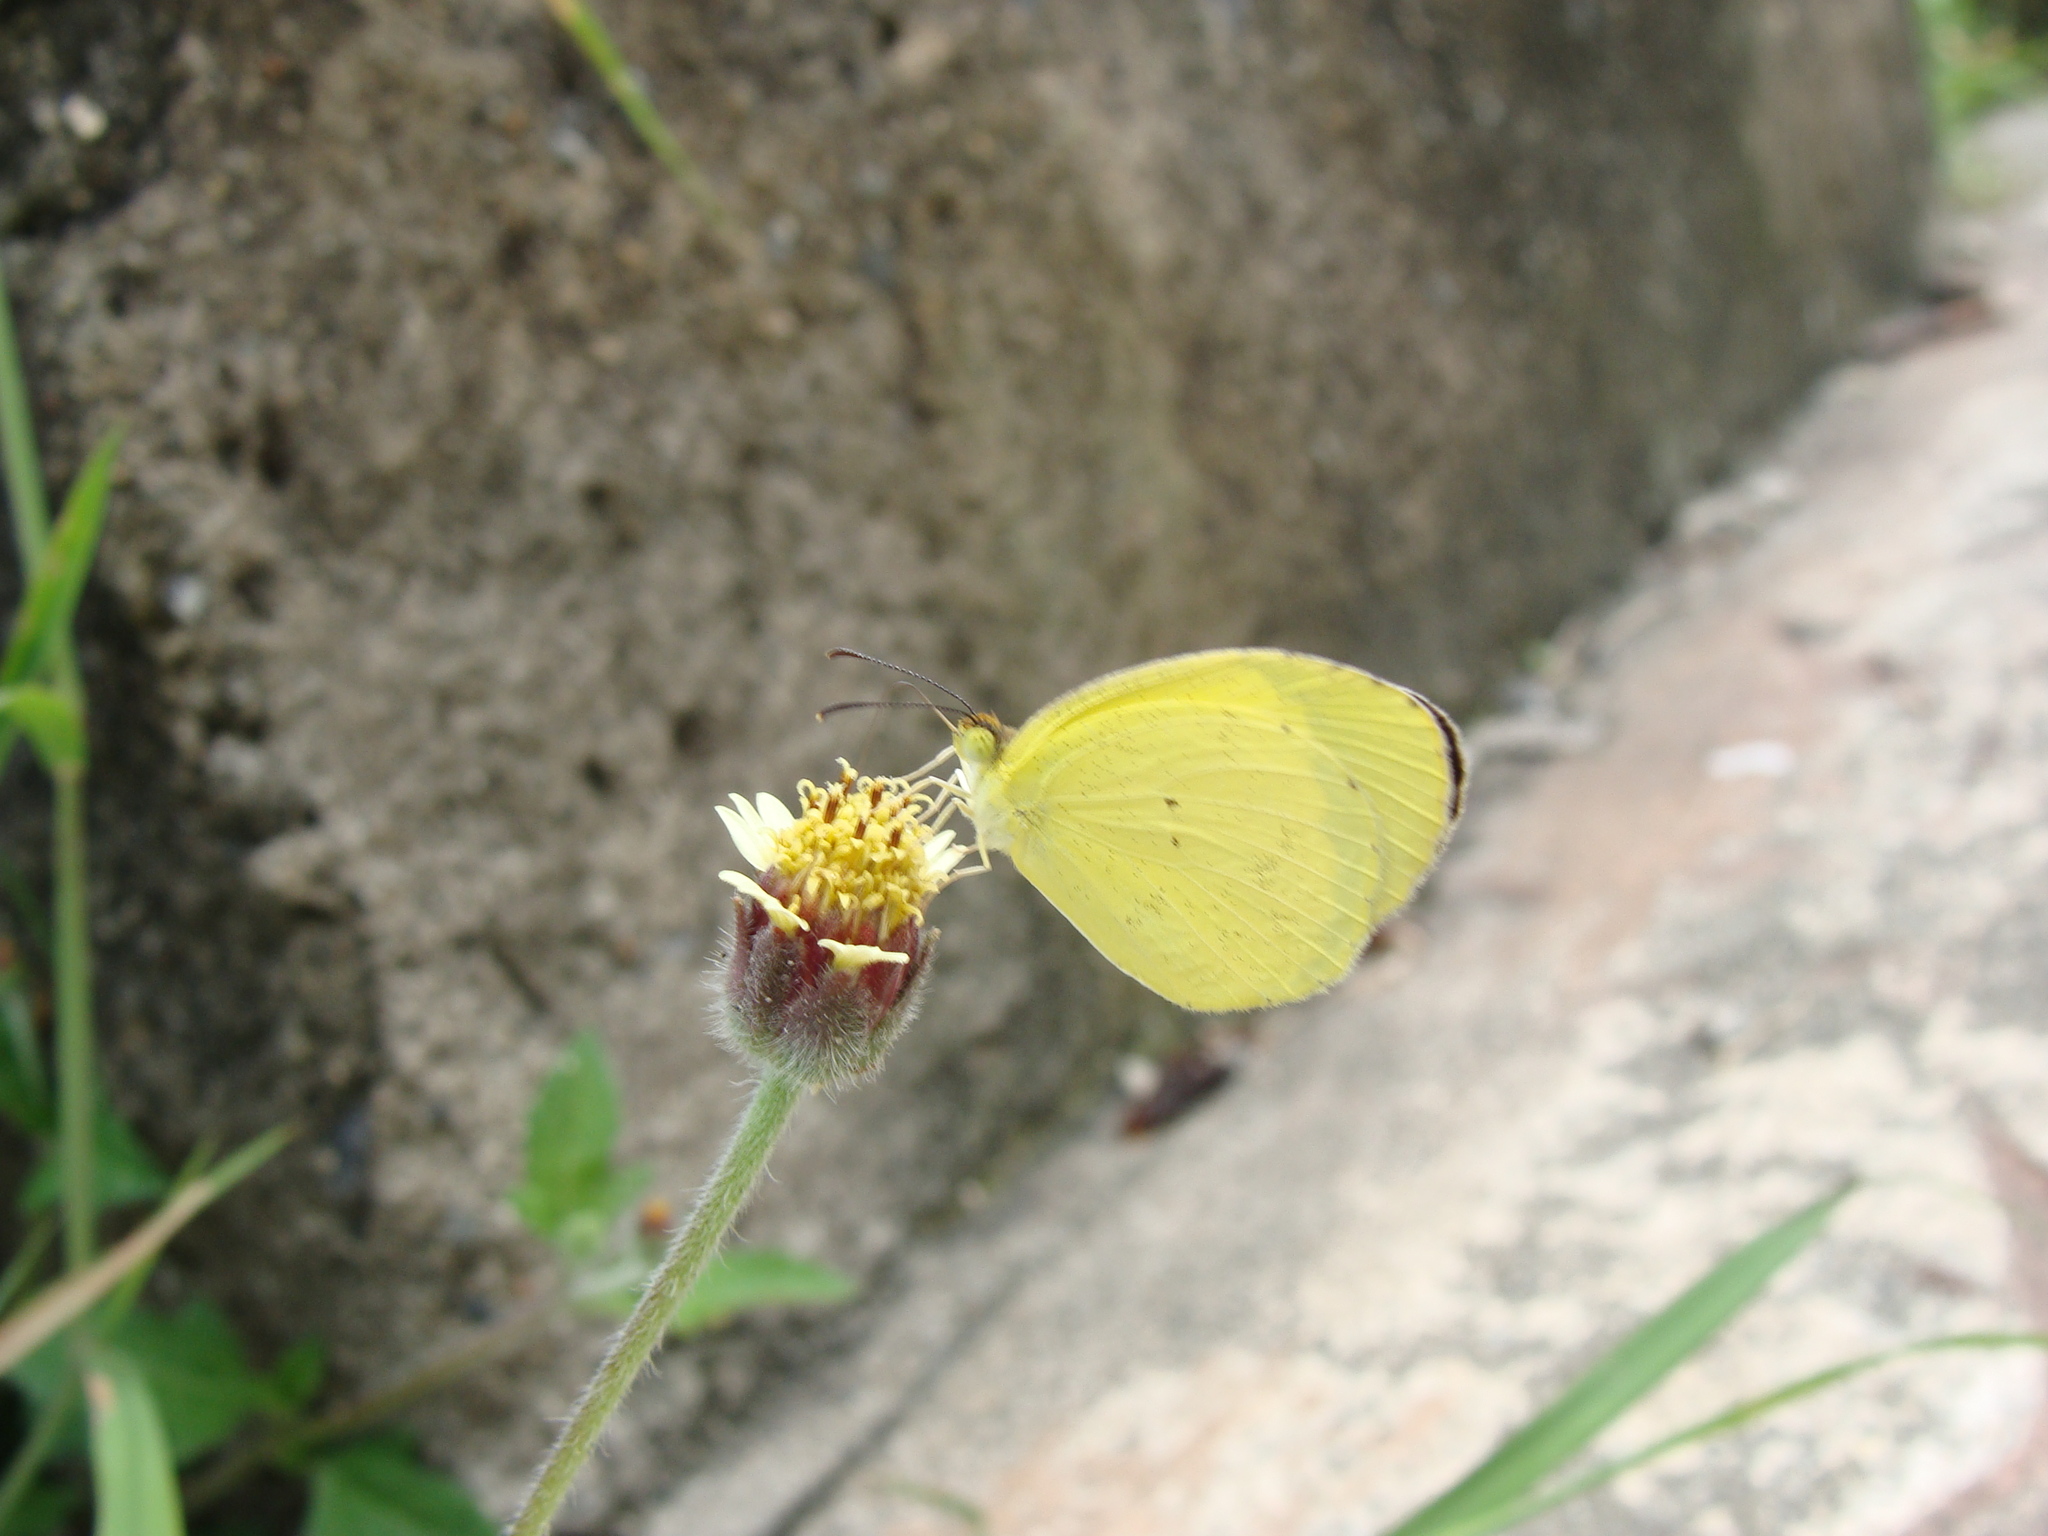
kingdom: Animalia
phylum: Arthropoda
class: Insecta
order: Lepidoptera
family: Pieridae
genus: Pyrisitia
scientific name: Pyrisitia nise
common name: Mimosa yellow
